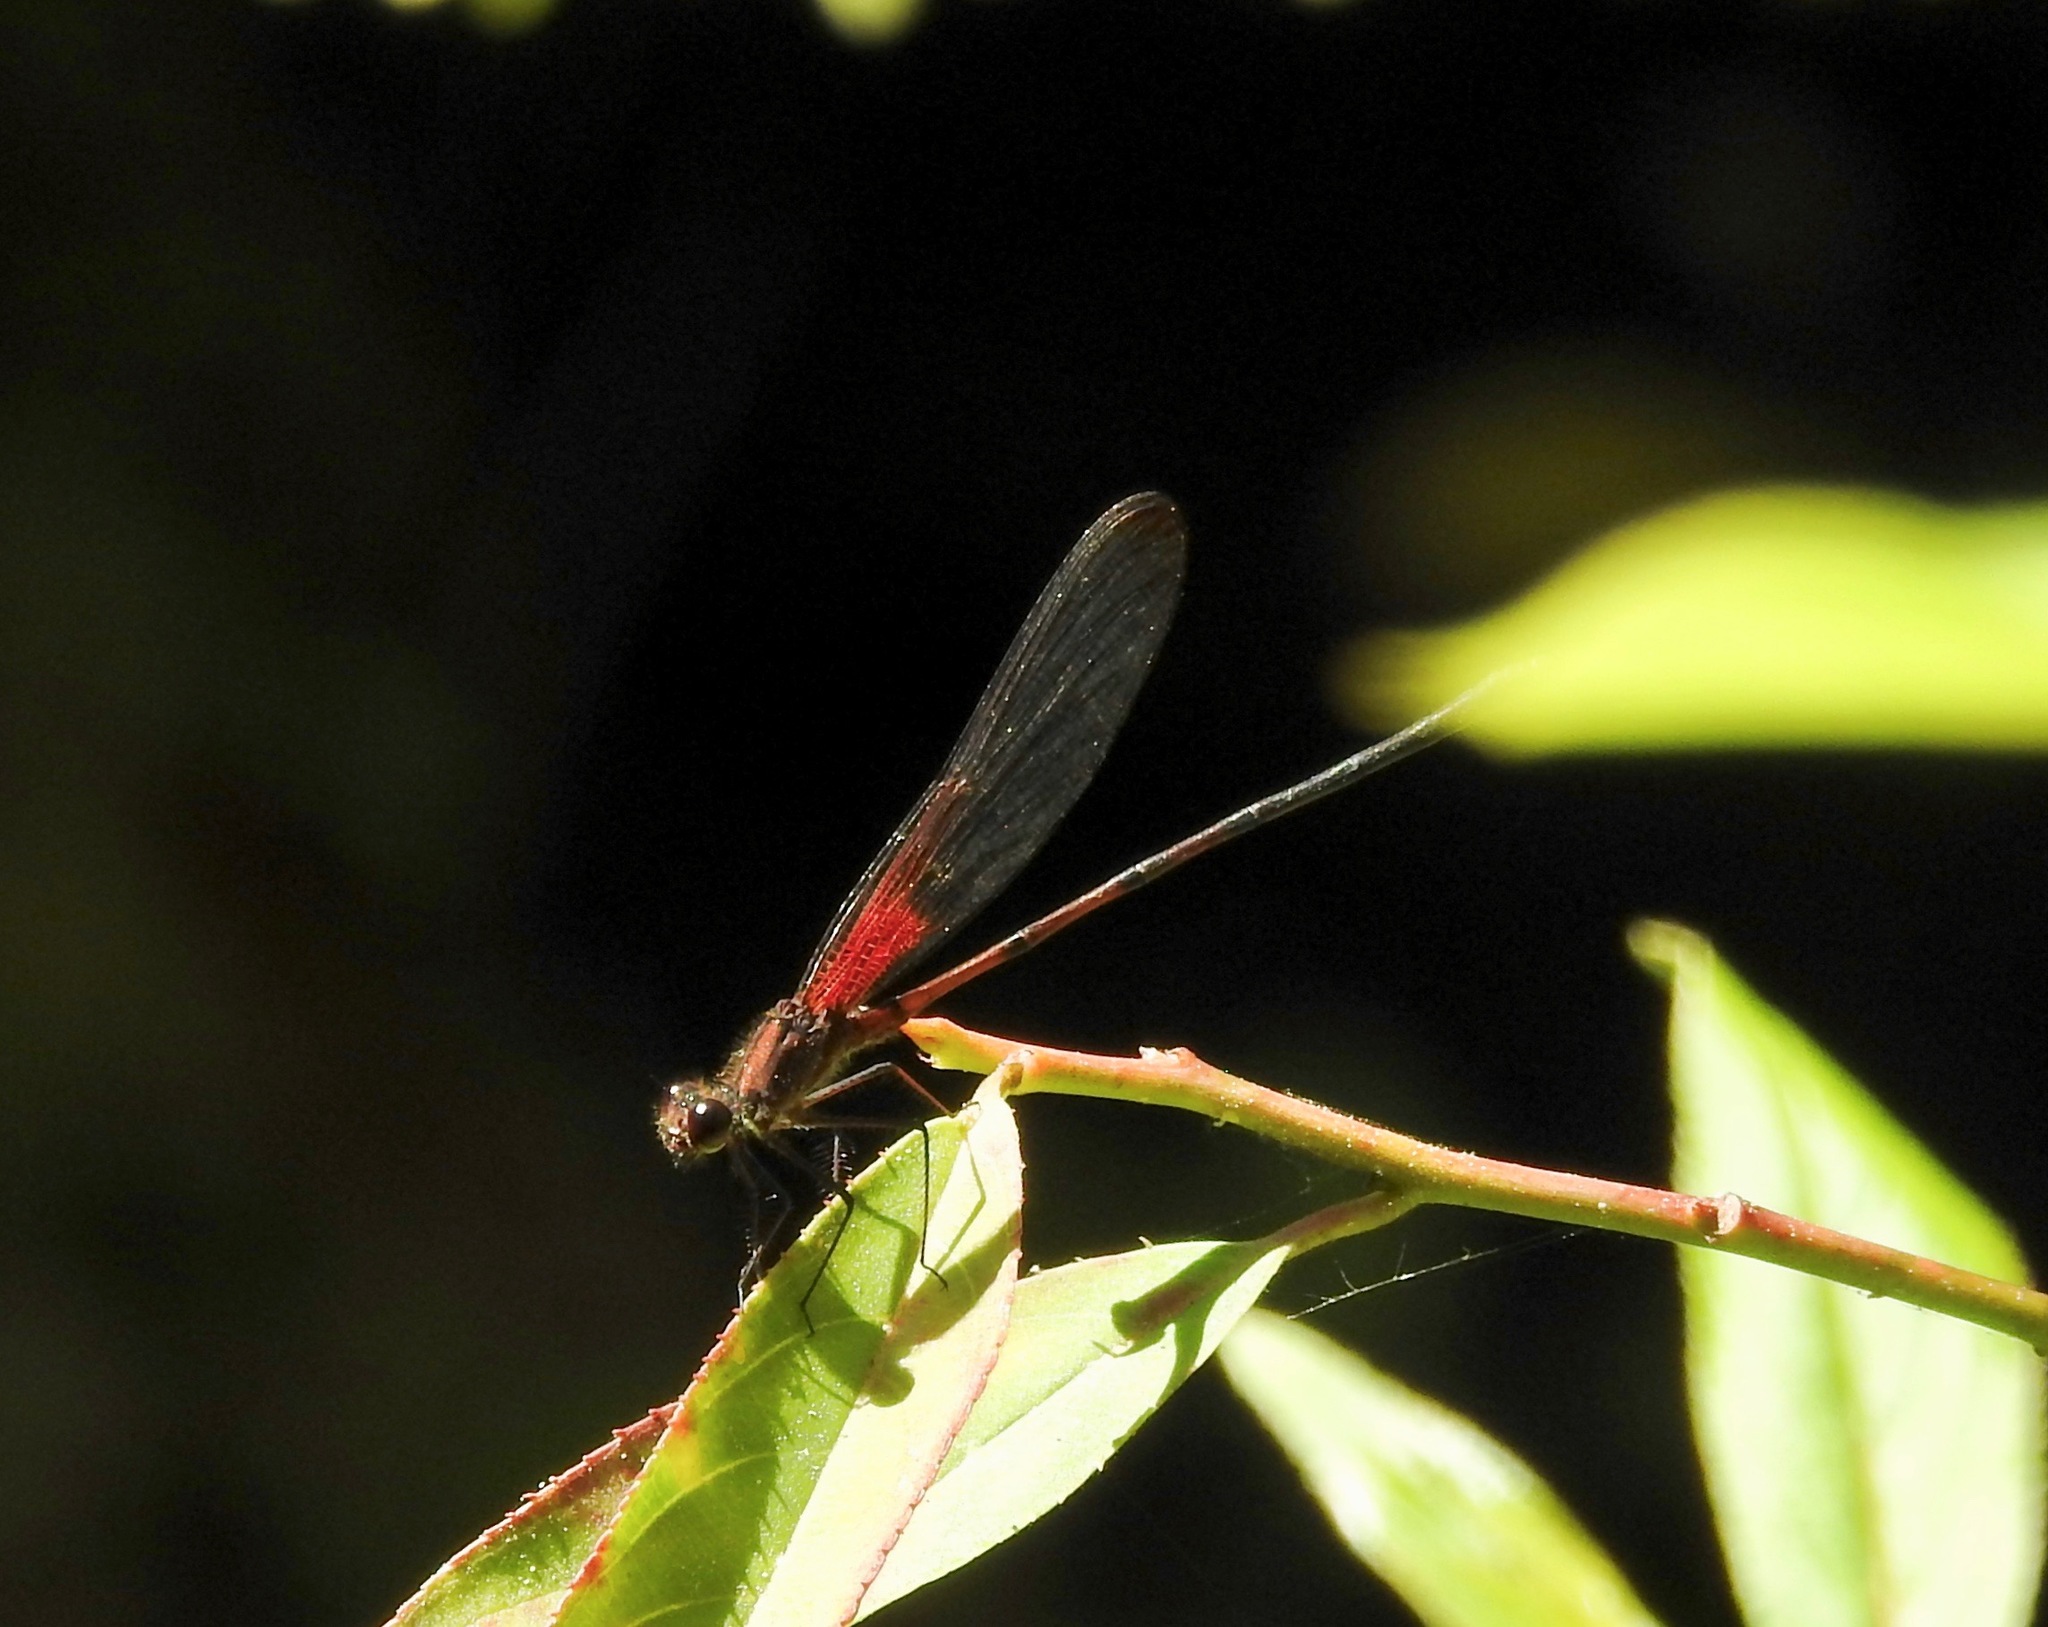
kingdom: Animalia
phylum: Arthropoda
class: Insecta
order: Odonata
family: Calopterygidae
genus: Hetaerina
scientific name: Hetaerina titia
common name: Smoky rubyspot
